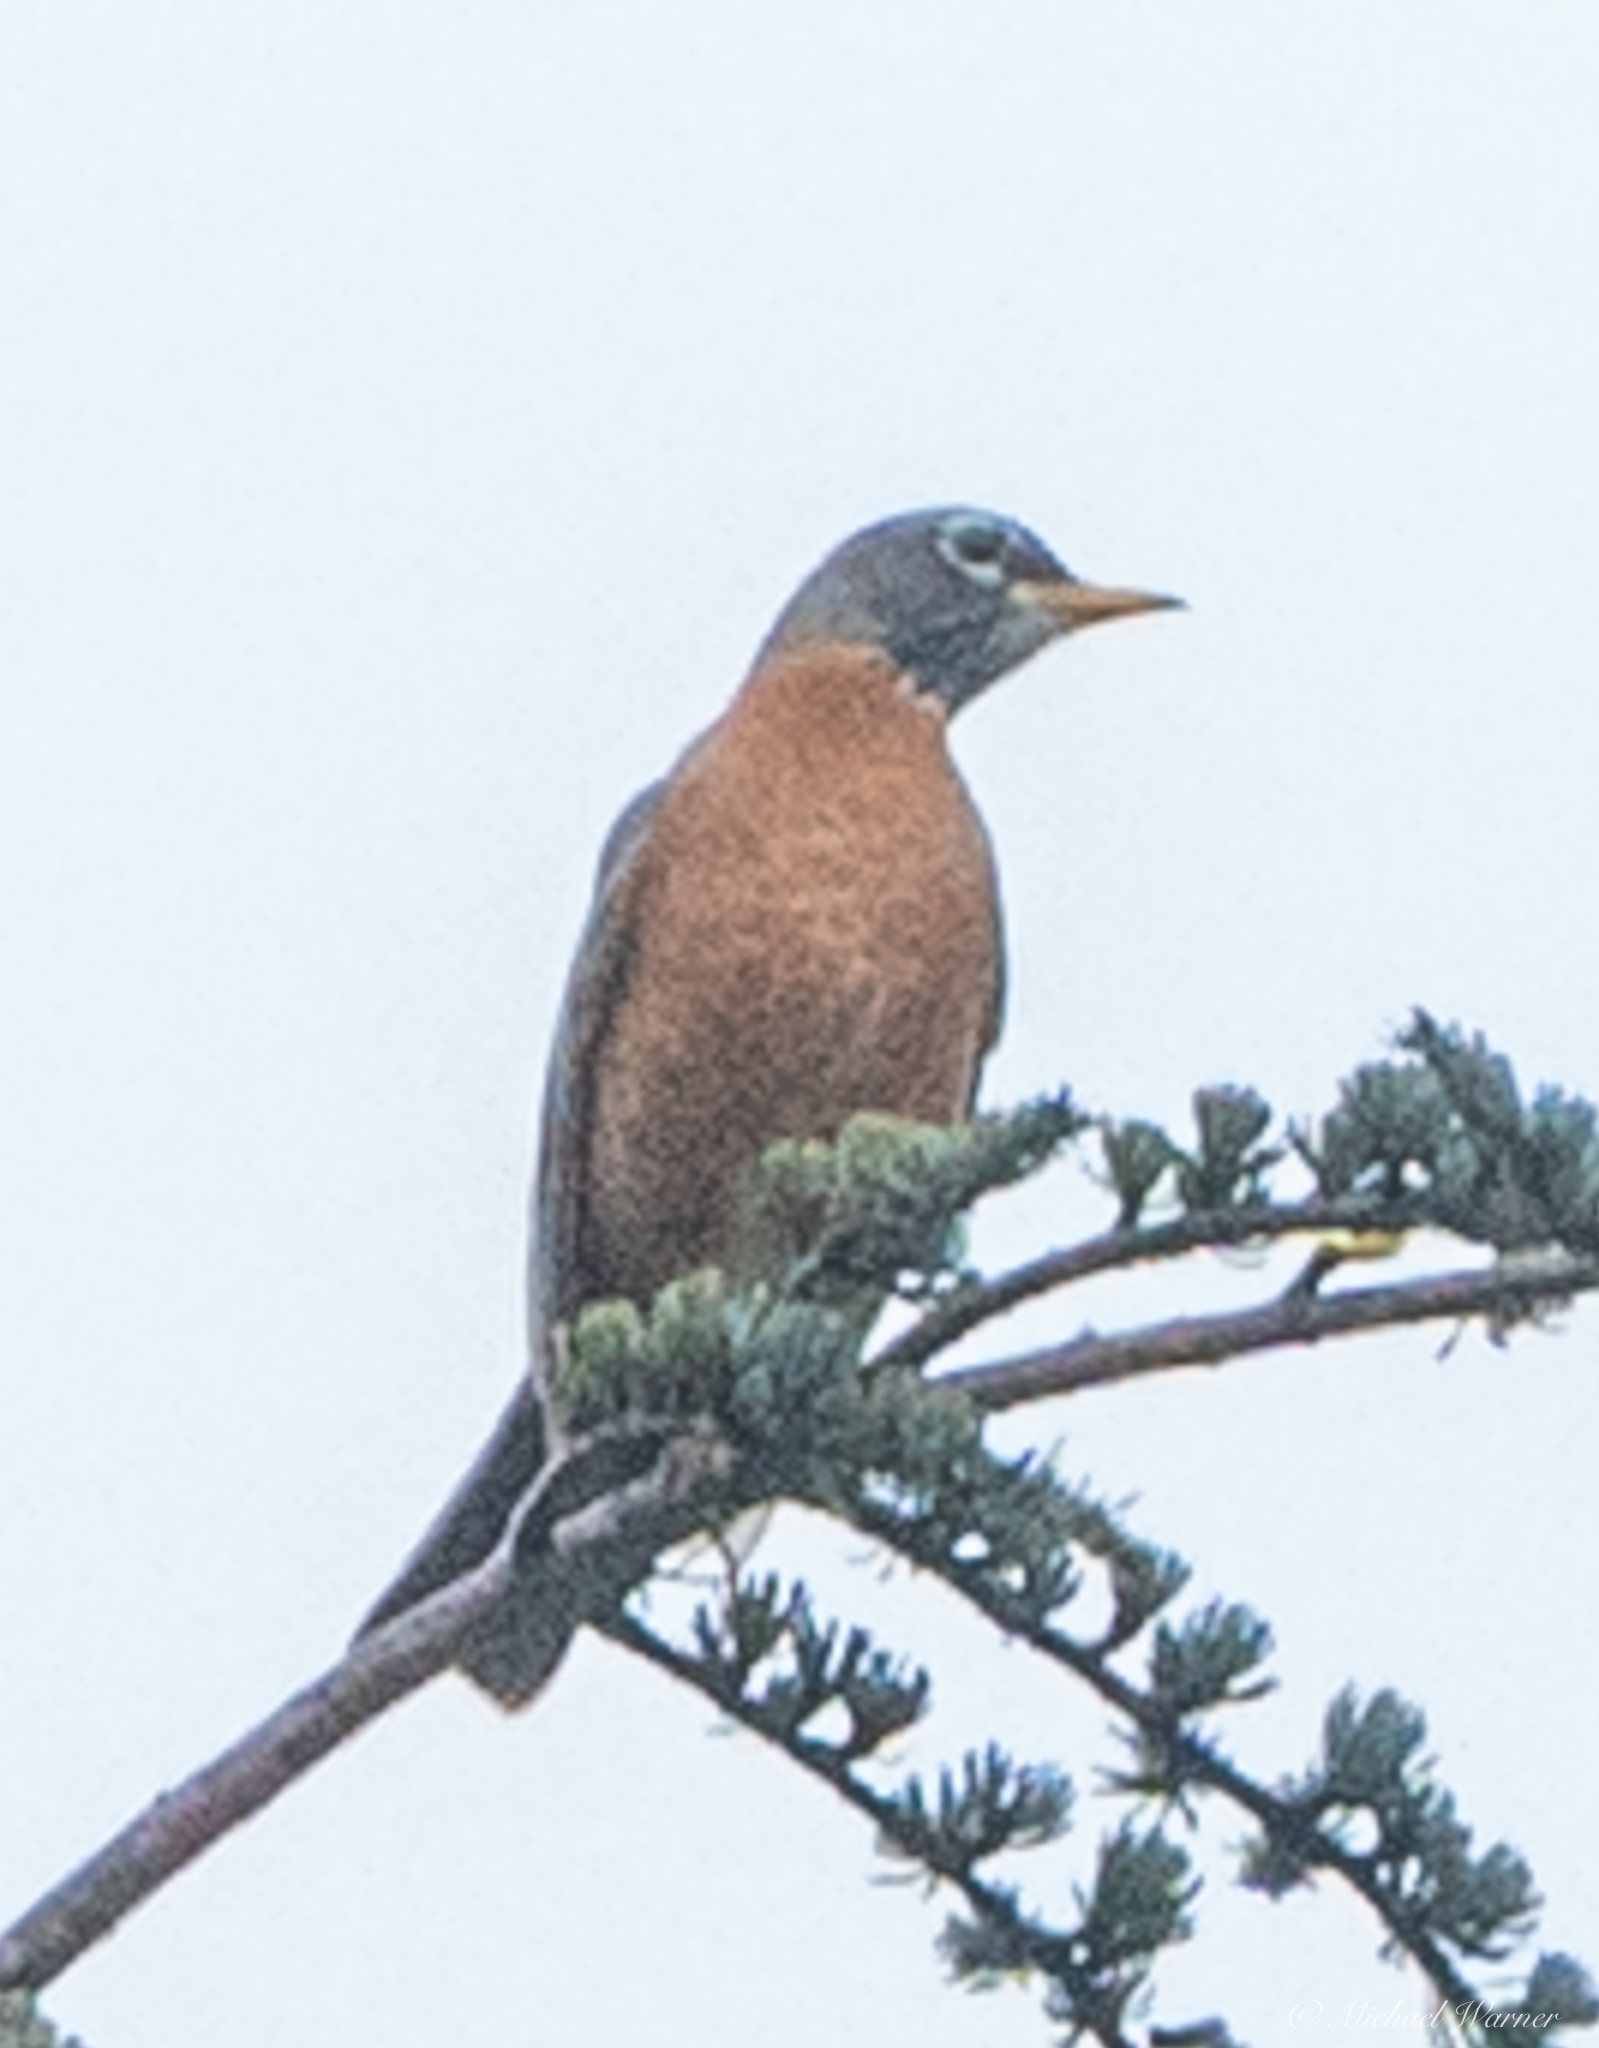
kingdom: Animalia
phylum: Chordata
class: Aves
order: Passeriformes
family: Turdidae
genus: Turdus
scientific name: Turdus migratorius
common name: American robin
